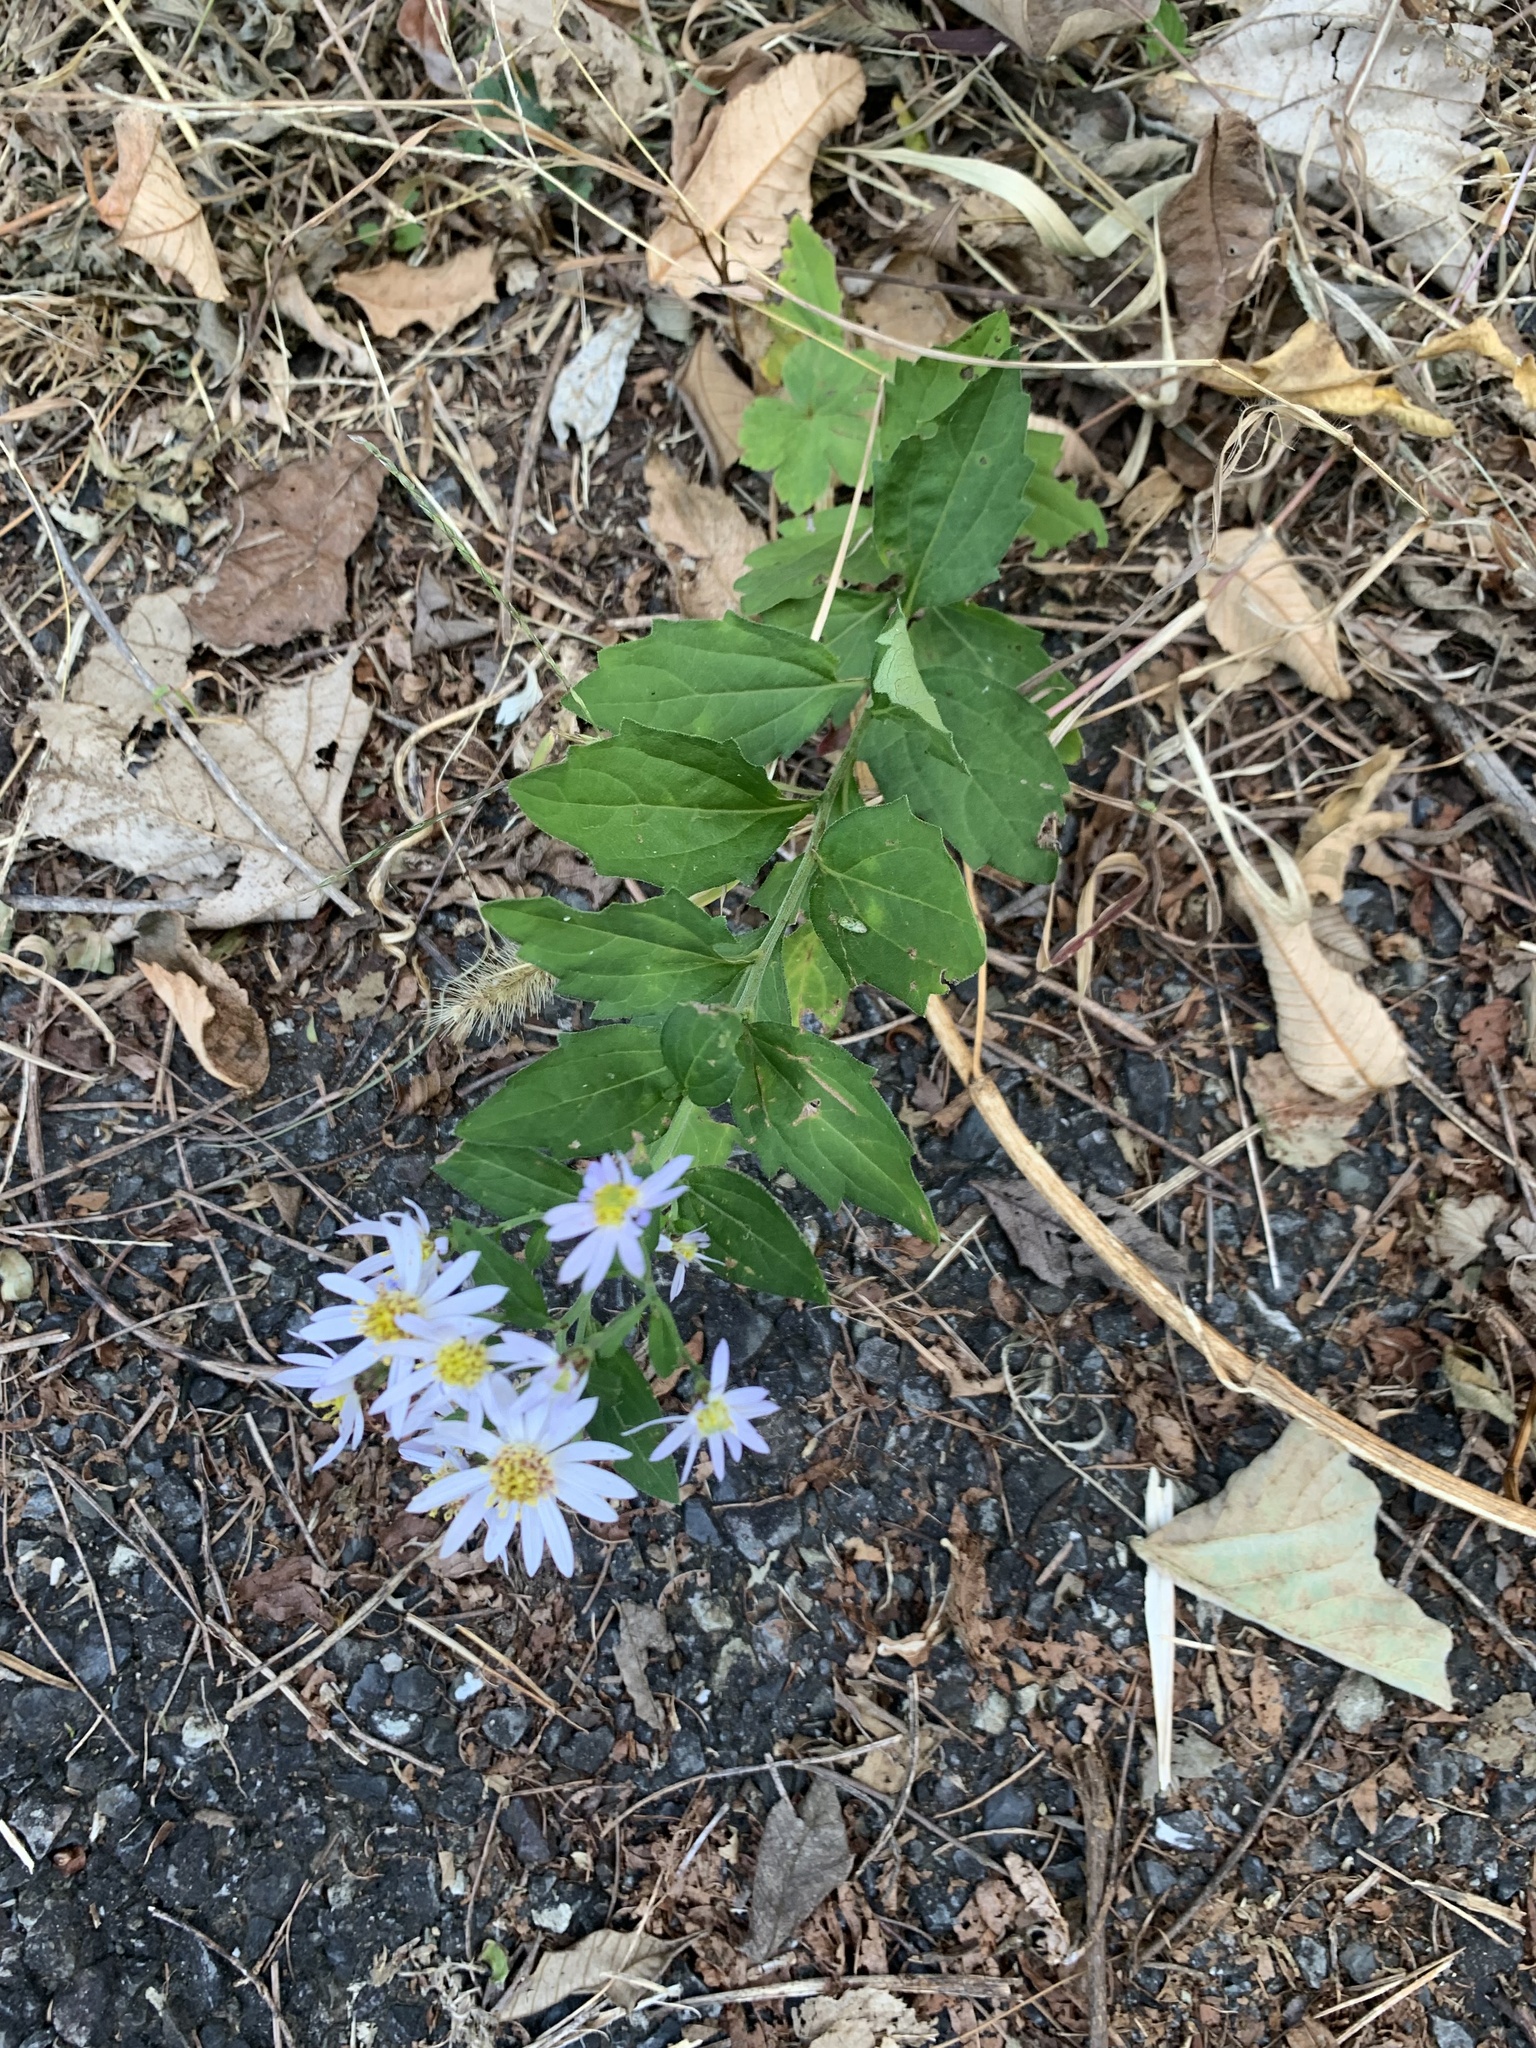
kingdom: Plantae
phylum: Tracheophyta
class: Magnoliopsida
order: Asterales
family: Asteraceae
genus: Aster
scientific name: Aster microcephalus
